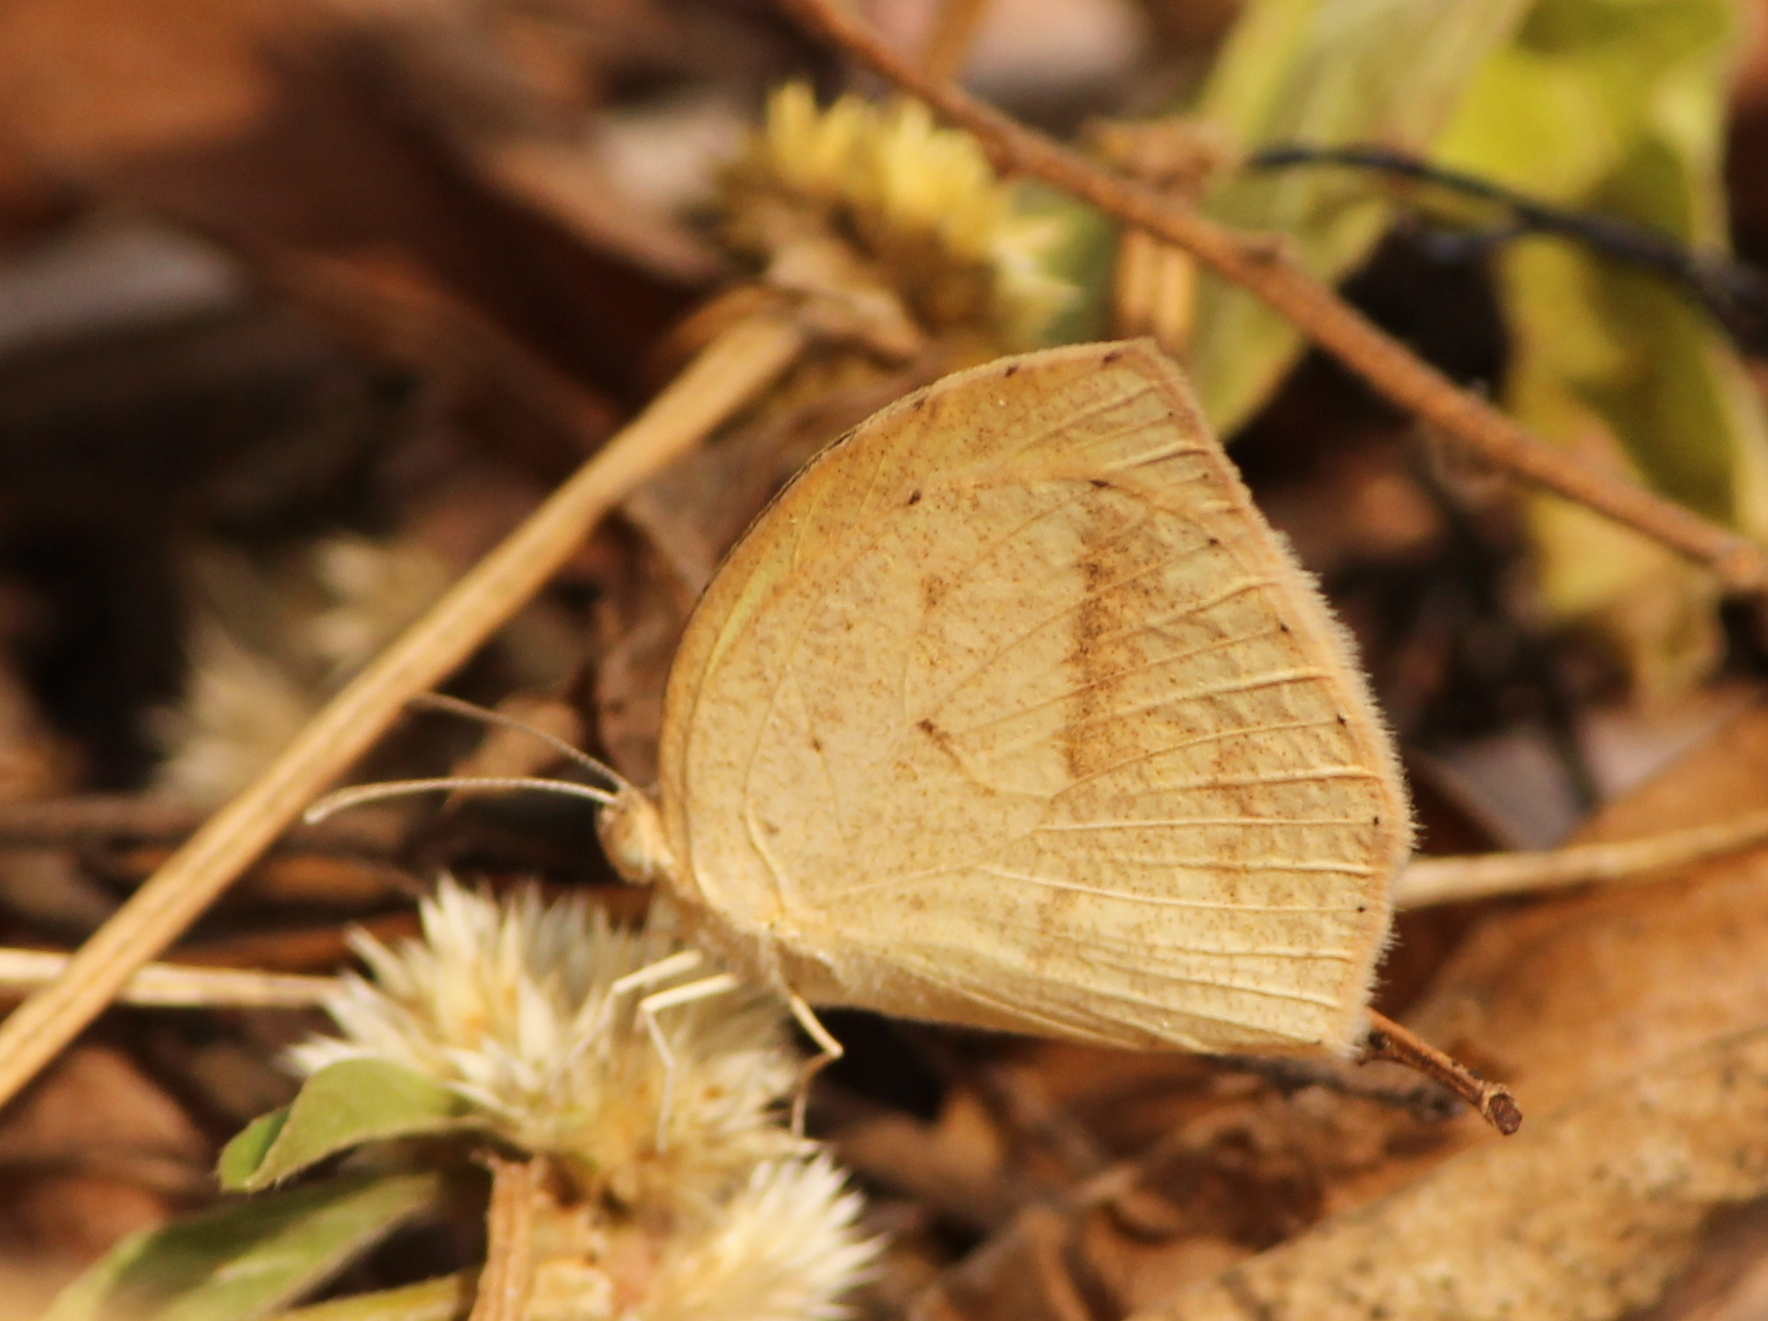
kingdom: Animalia
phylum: Arthropoda
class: Insecta
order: Lepidoptera
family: Pieridae
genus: Eurema
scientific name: Eurema laeta
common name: Spotless grass yellow
